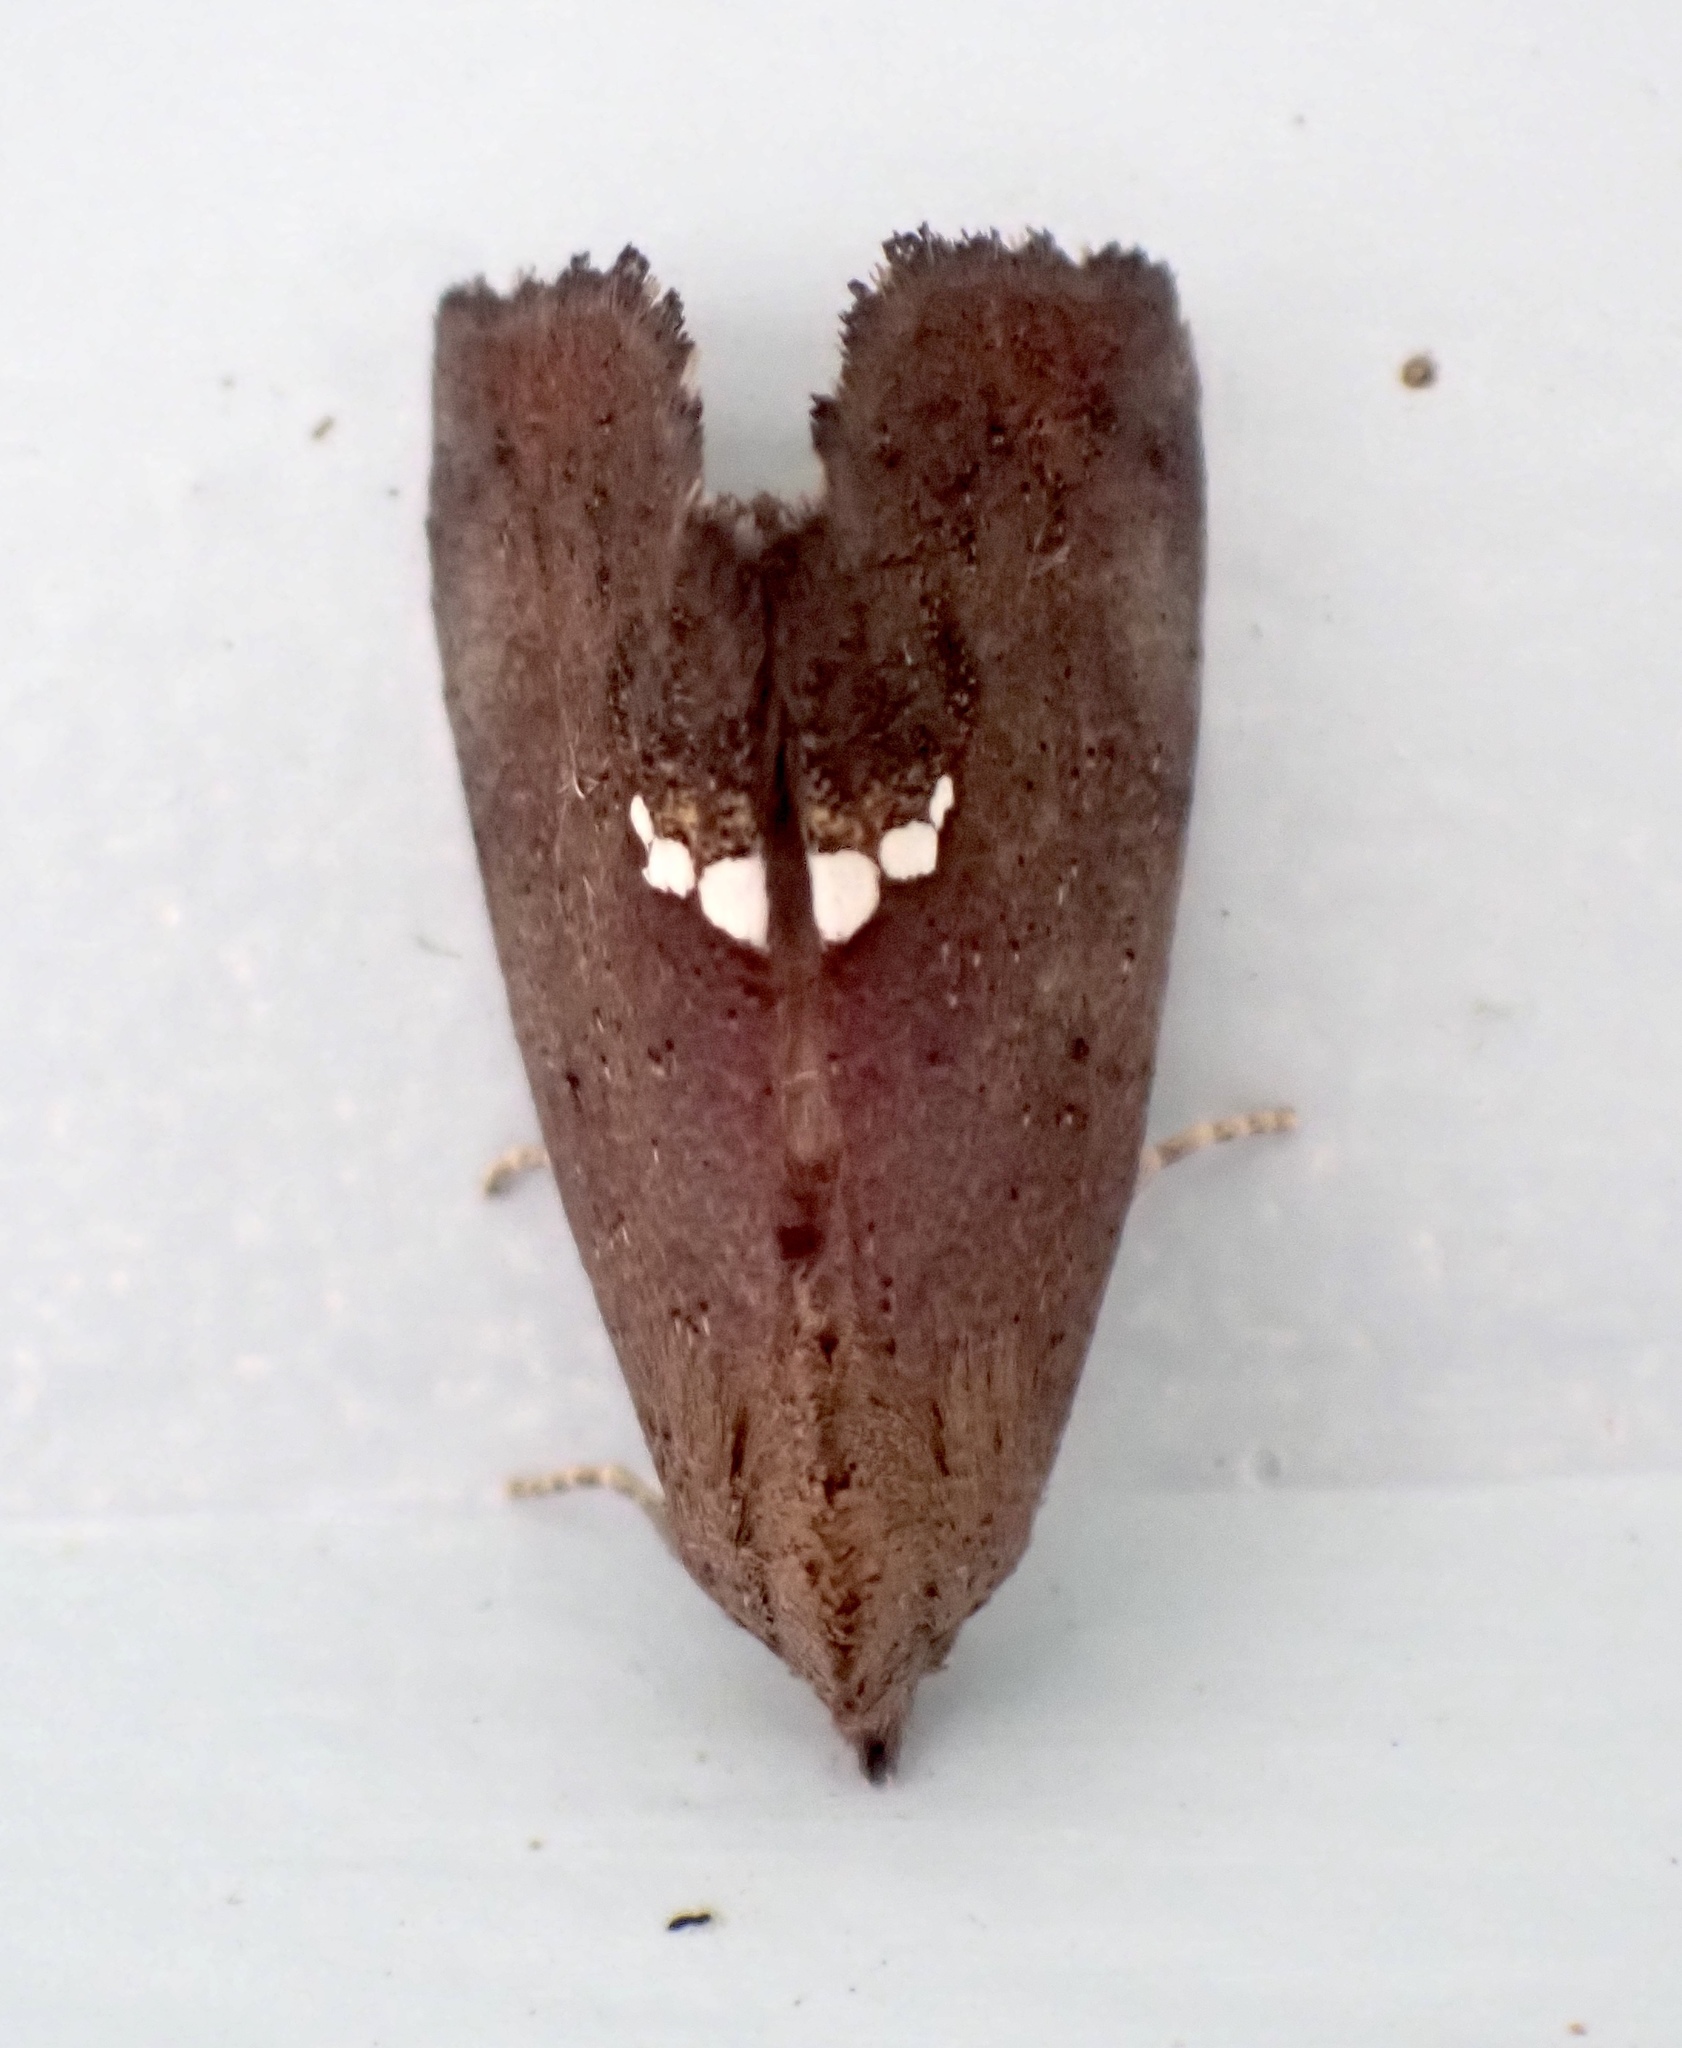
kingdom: Animalia
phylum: Arthropoda
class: Insecta
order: Lepidoptera
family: Erebidae
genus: Hypsoropha
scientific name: Hypsoropha hormos
